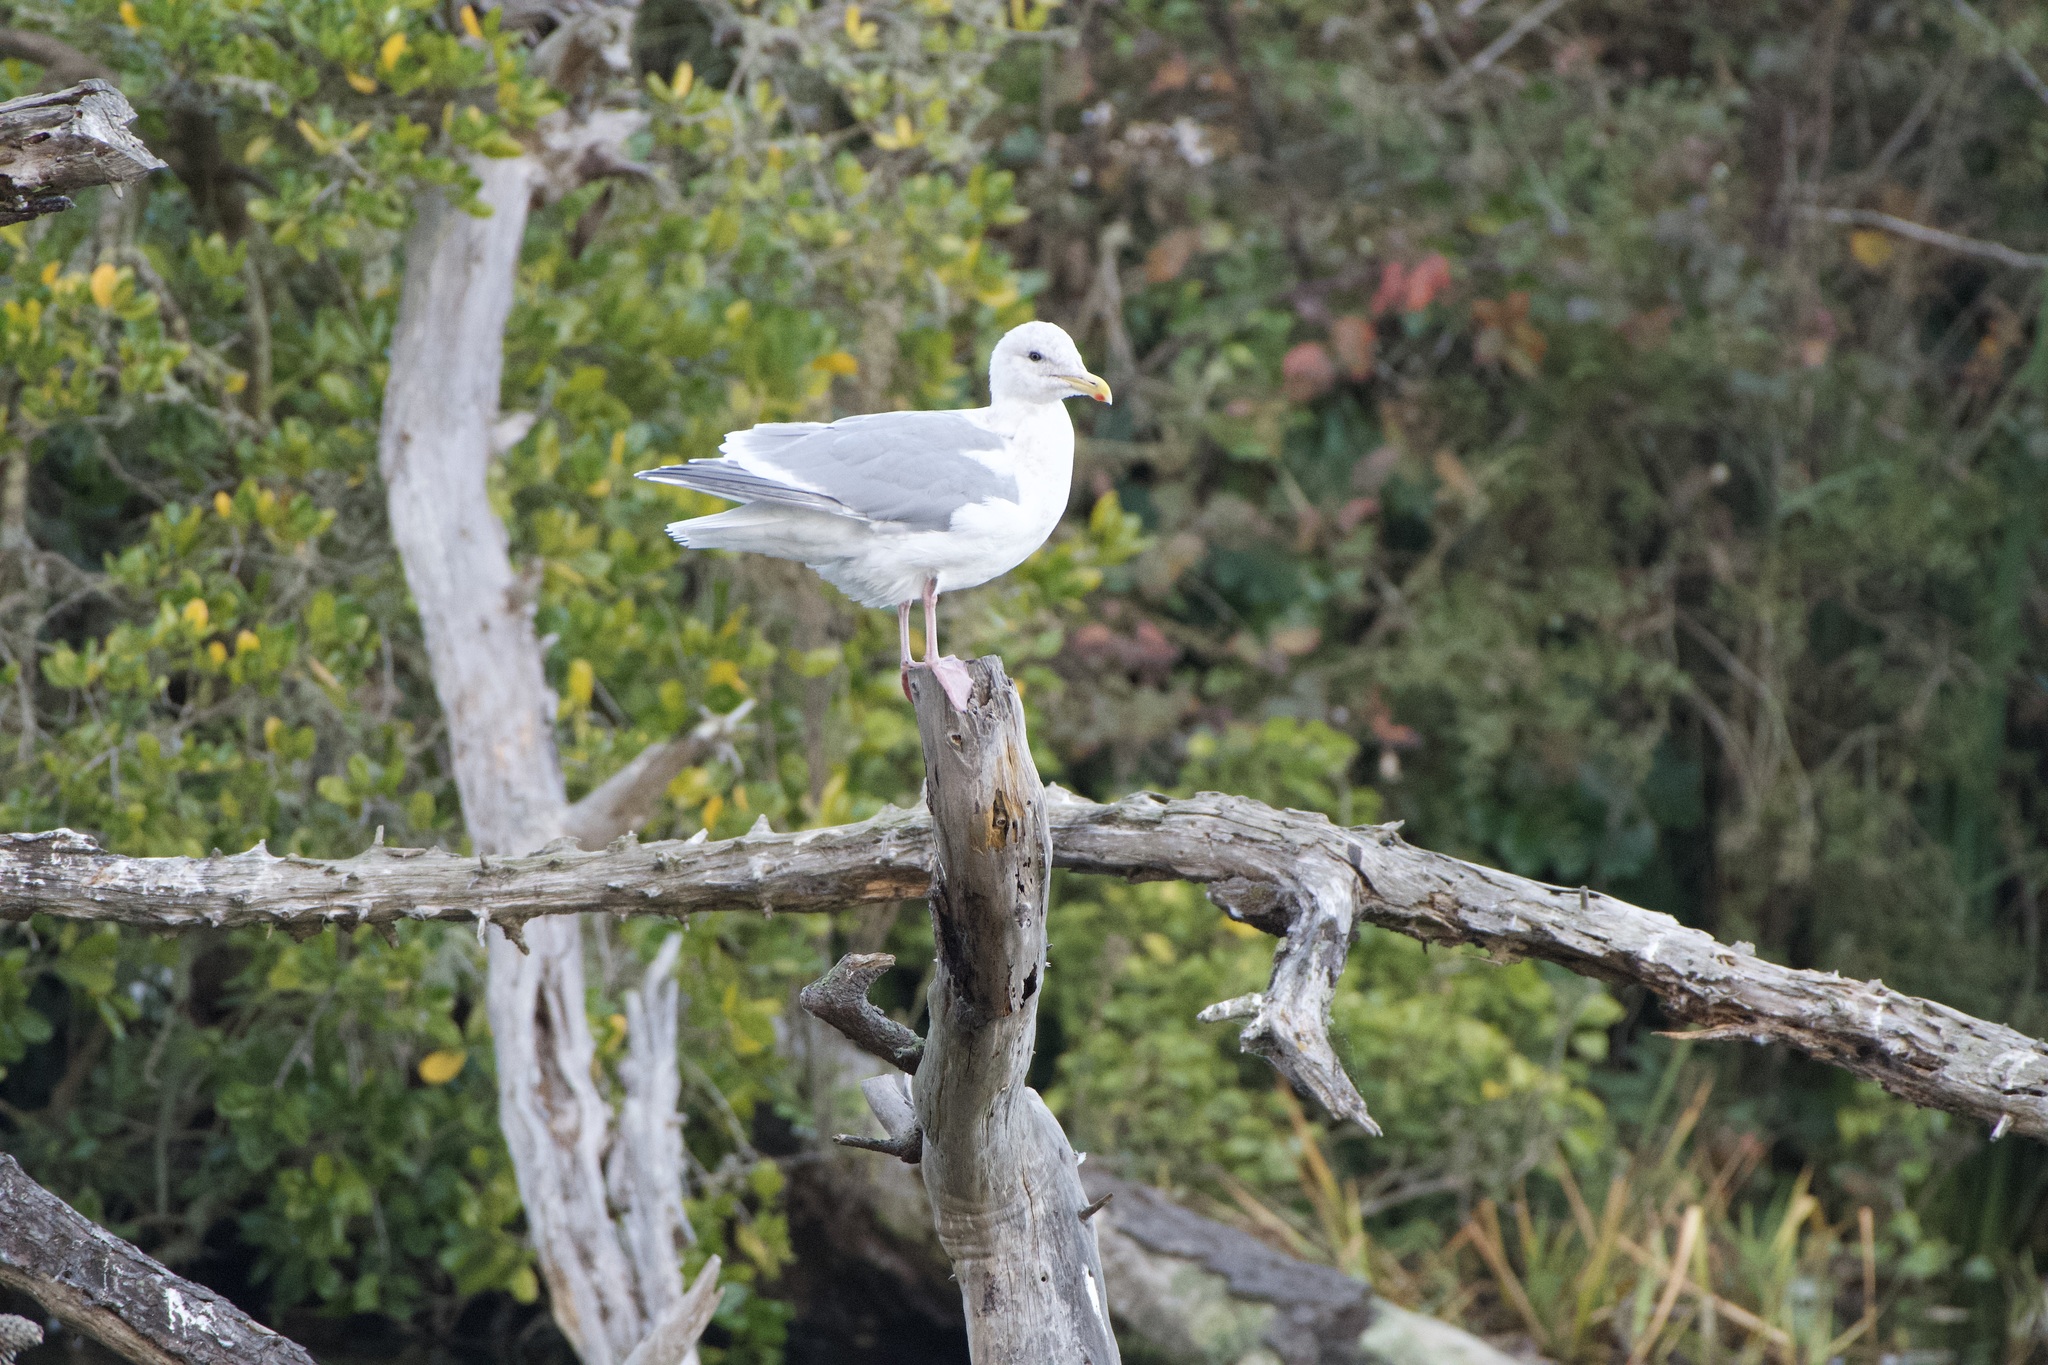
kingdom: Animalia
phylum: Chordata
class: Aves
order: Charadriiformes
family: Laridae
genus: Larus
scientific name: Larus
